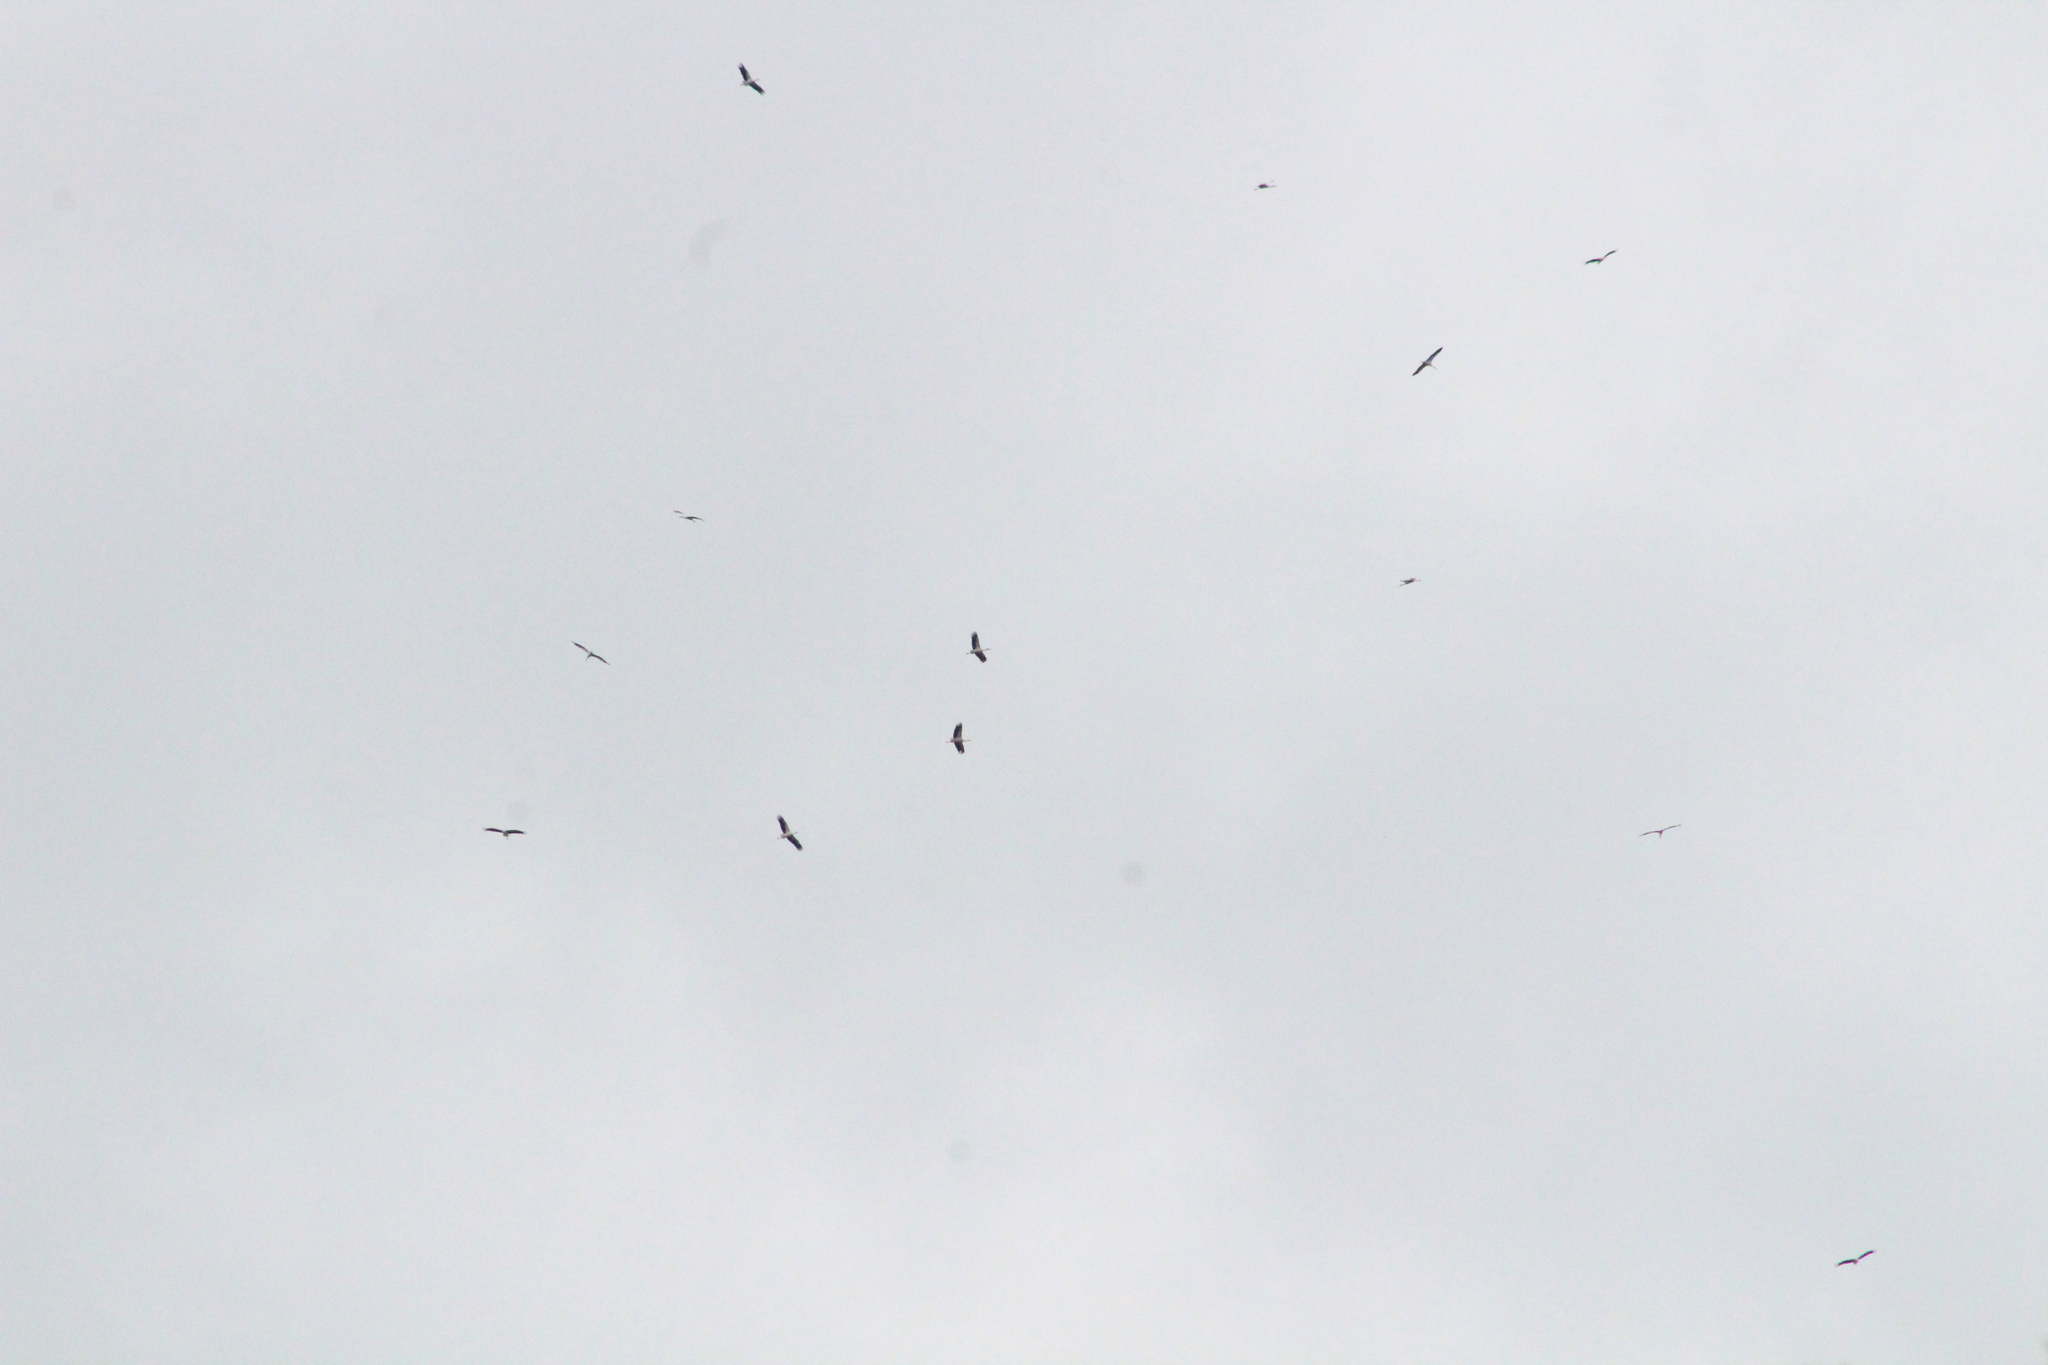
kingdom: Animalia
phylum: Chordata
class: Aves
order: Ciconiiformes
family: Ciconiidae
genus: Ciconia
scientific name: Ciconia ciconia
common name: White stork
